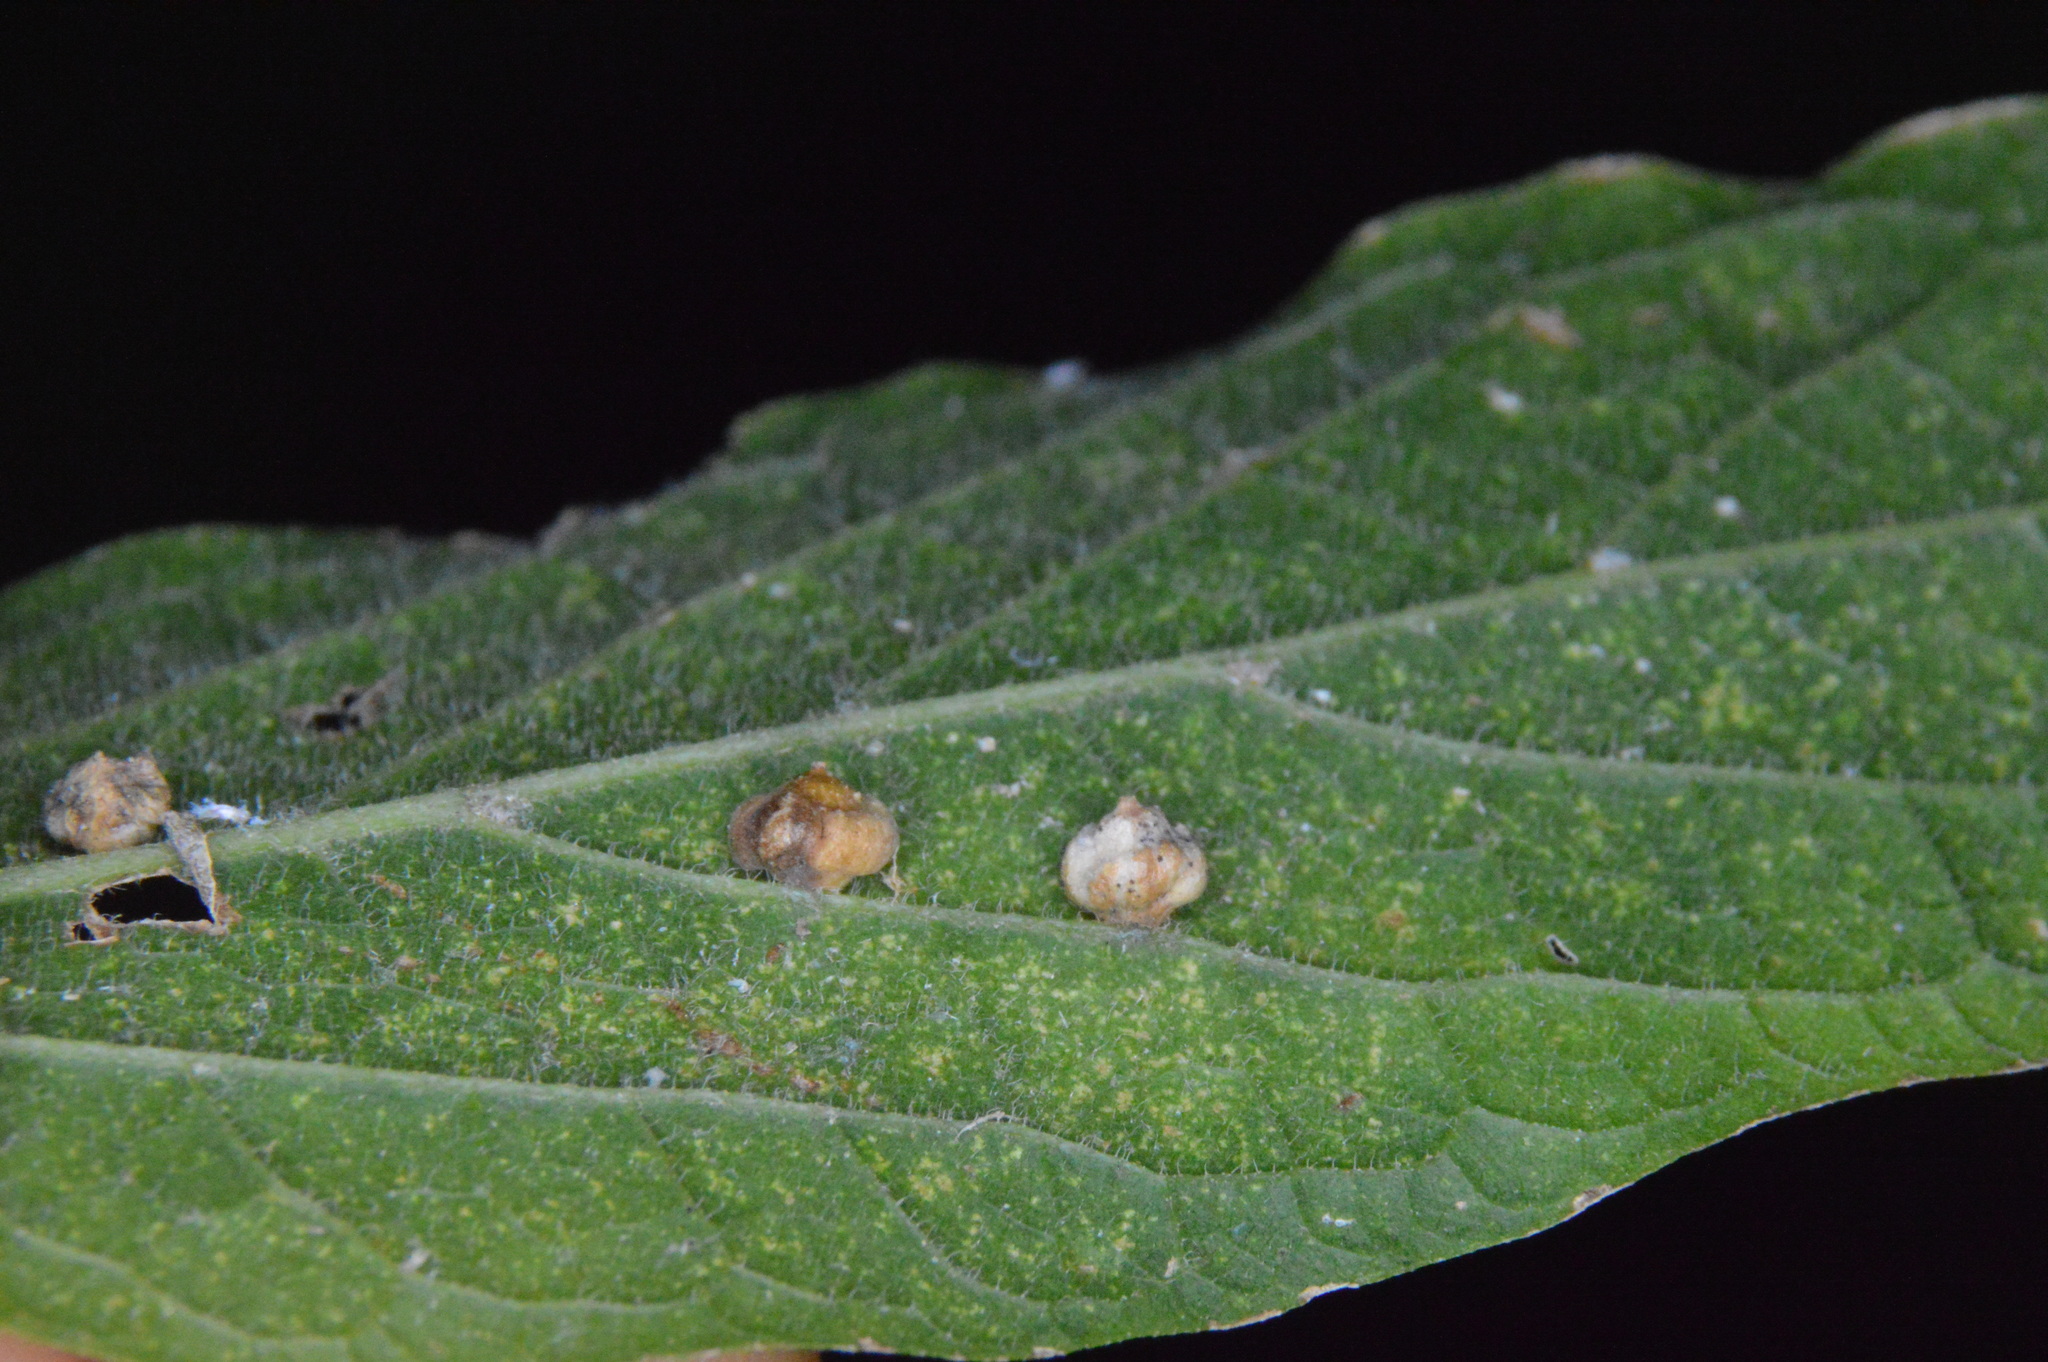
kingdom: Animalia
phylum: Arthropoda
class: Insecta
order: Diptera
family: Cecidomyiidae
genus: Celticecis
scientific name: Celticecis globosa
